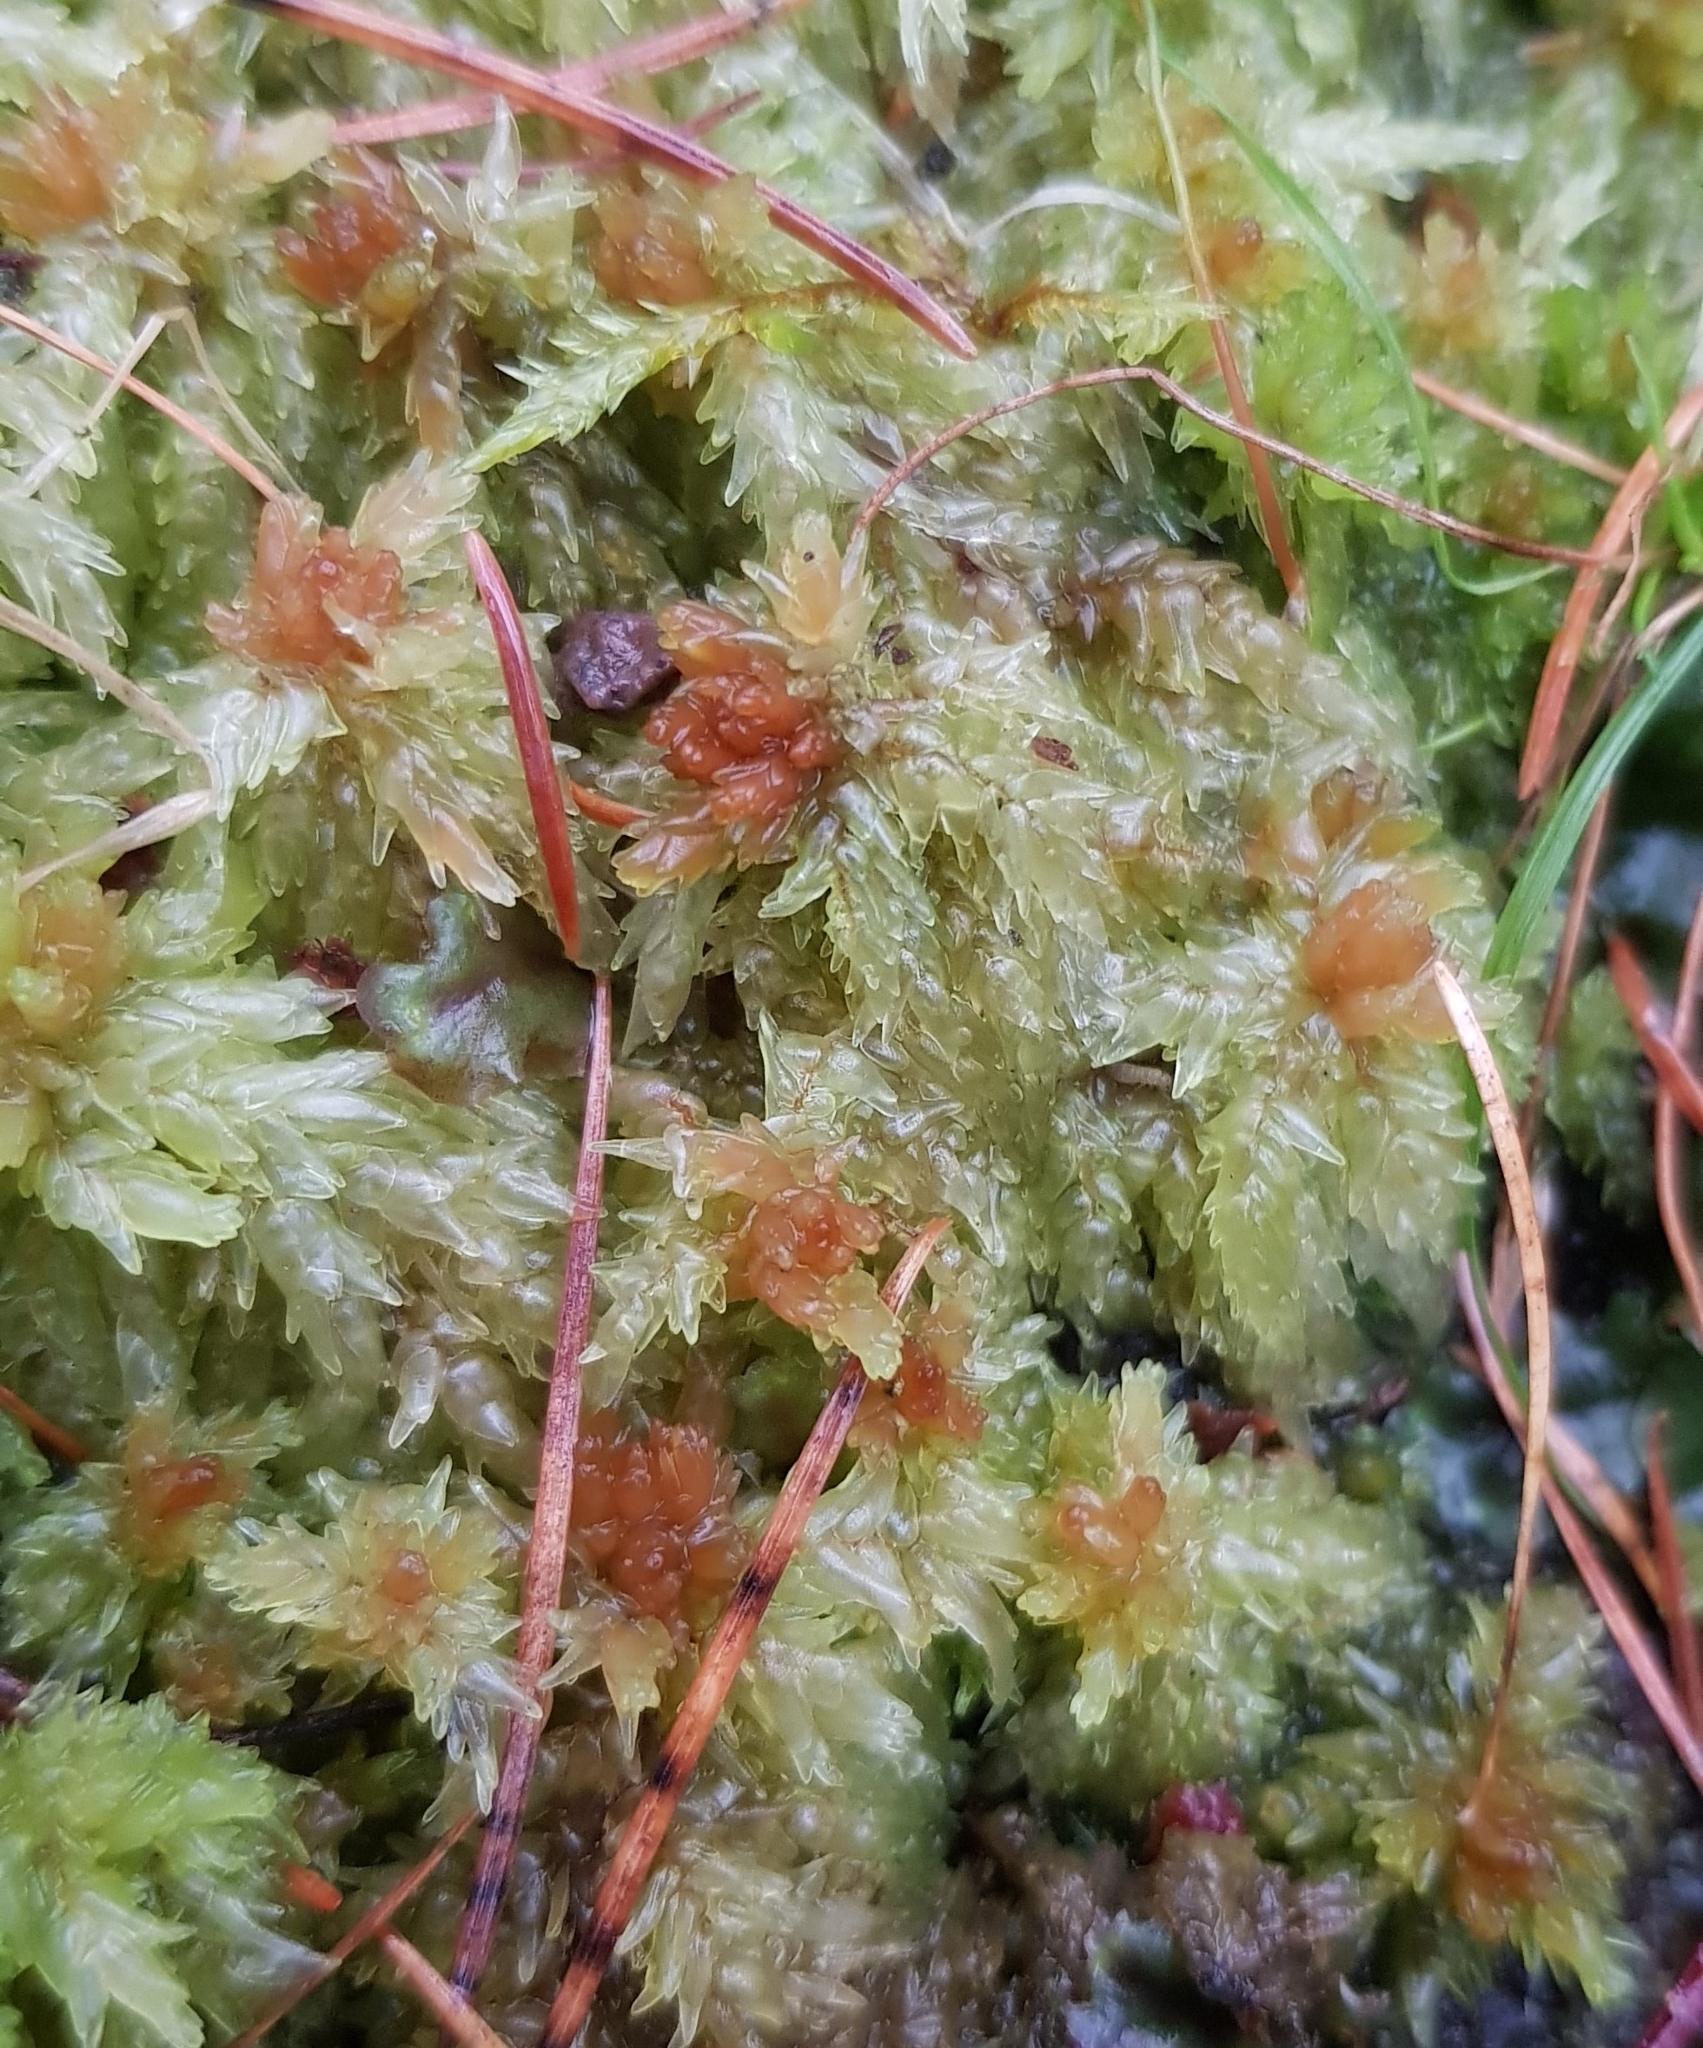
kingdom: Plantae
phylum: Bryophyta
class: Sphagnopsida
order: Sphagnales
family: Sphagnaceae
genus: Sphagnum
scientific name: Sphagnum palustre
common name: Blunt-leaved bog-moss
